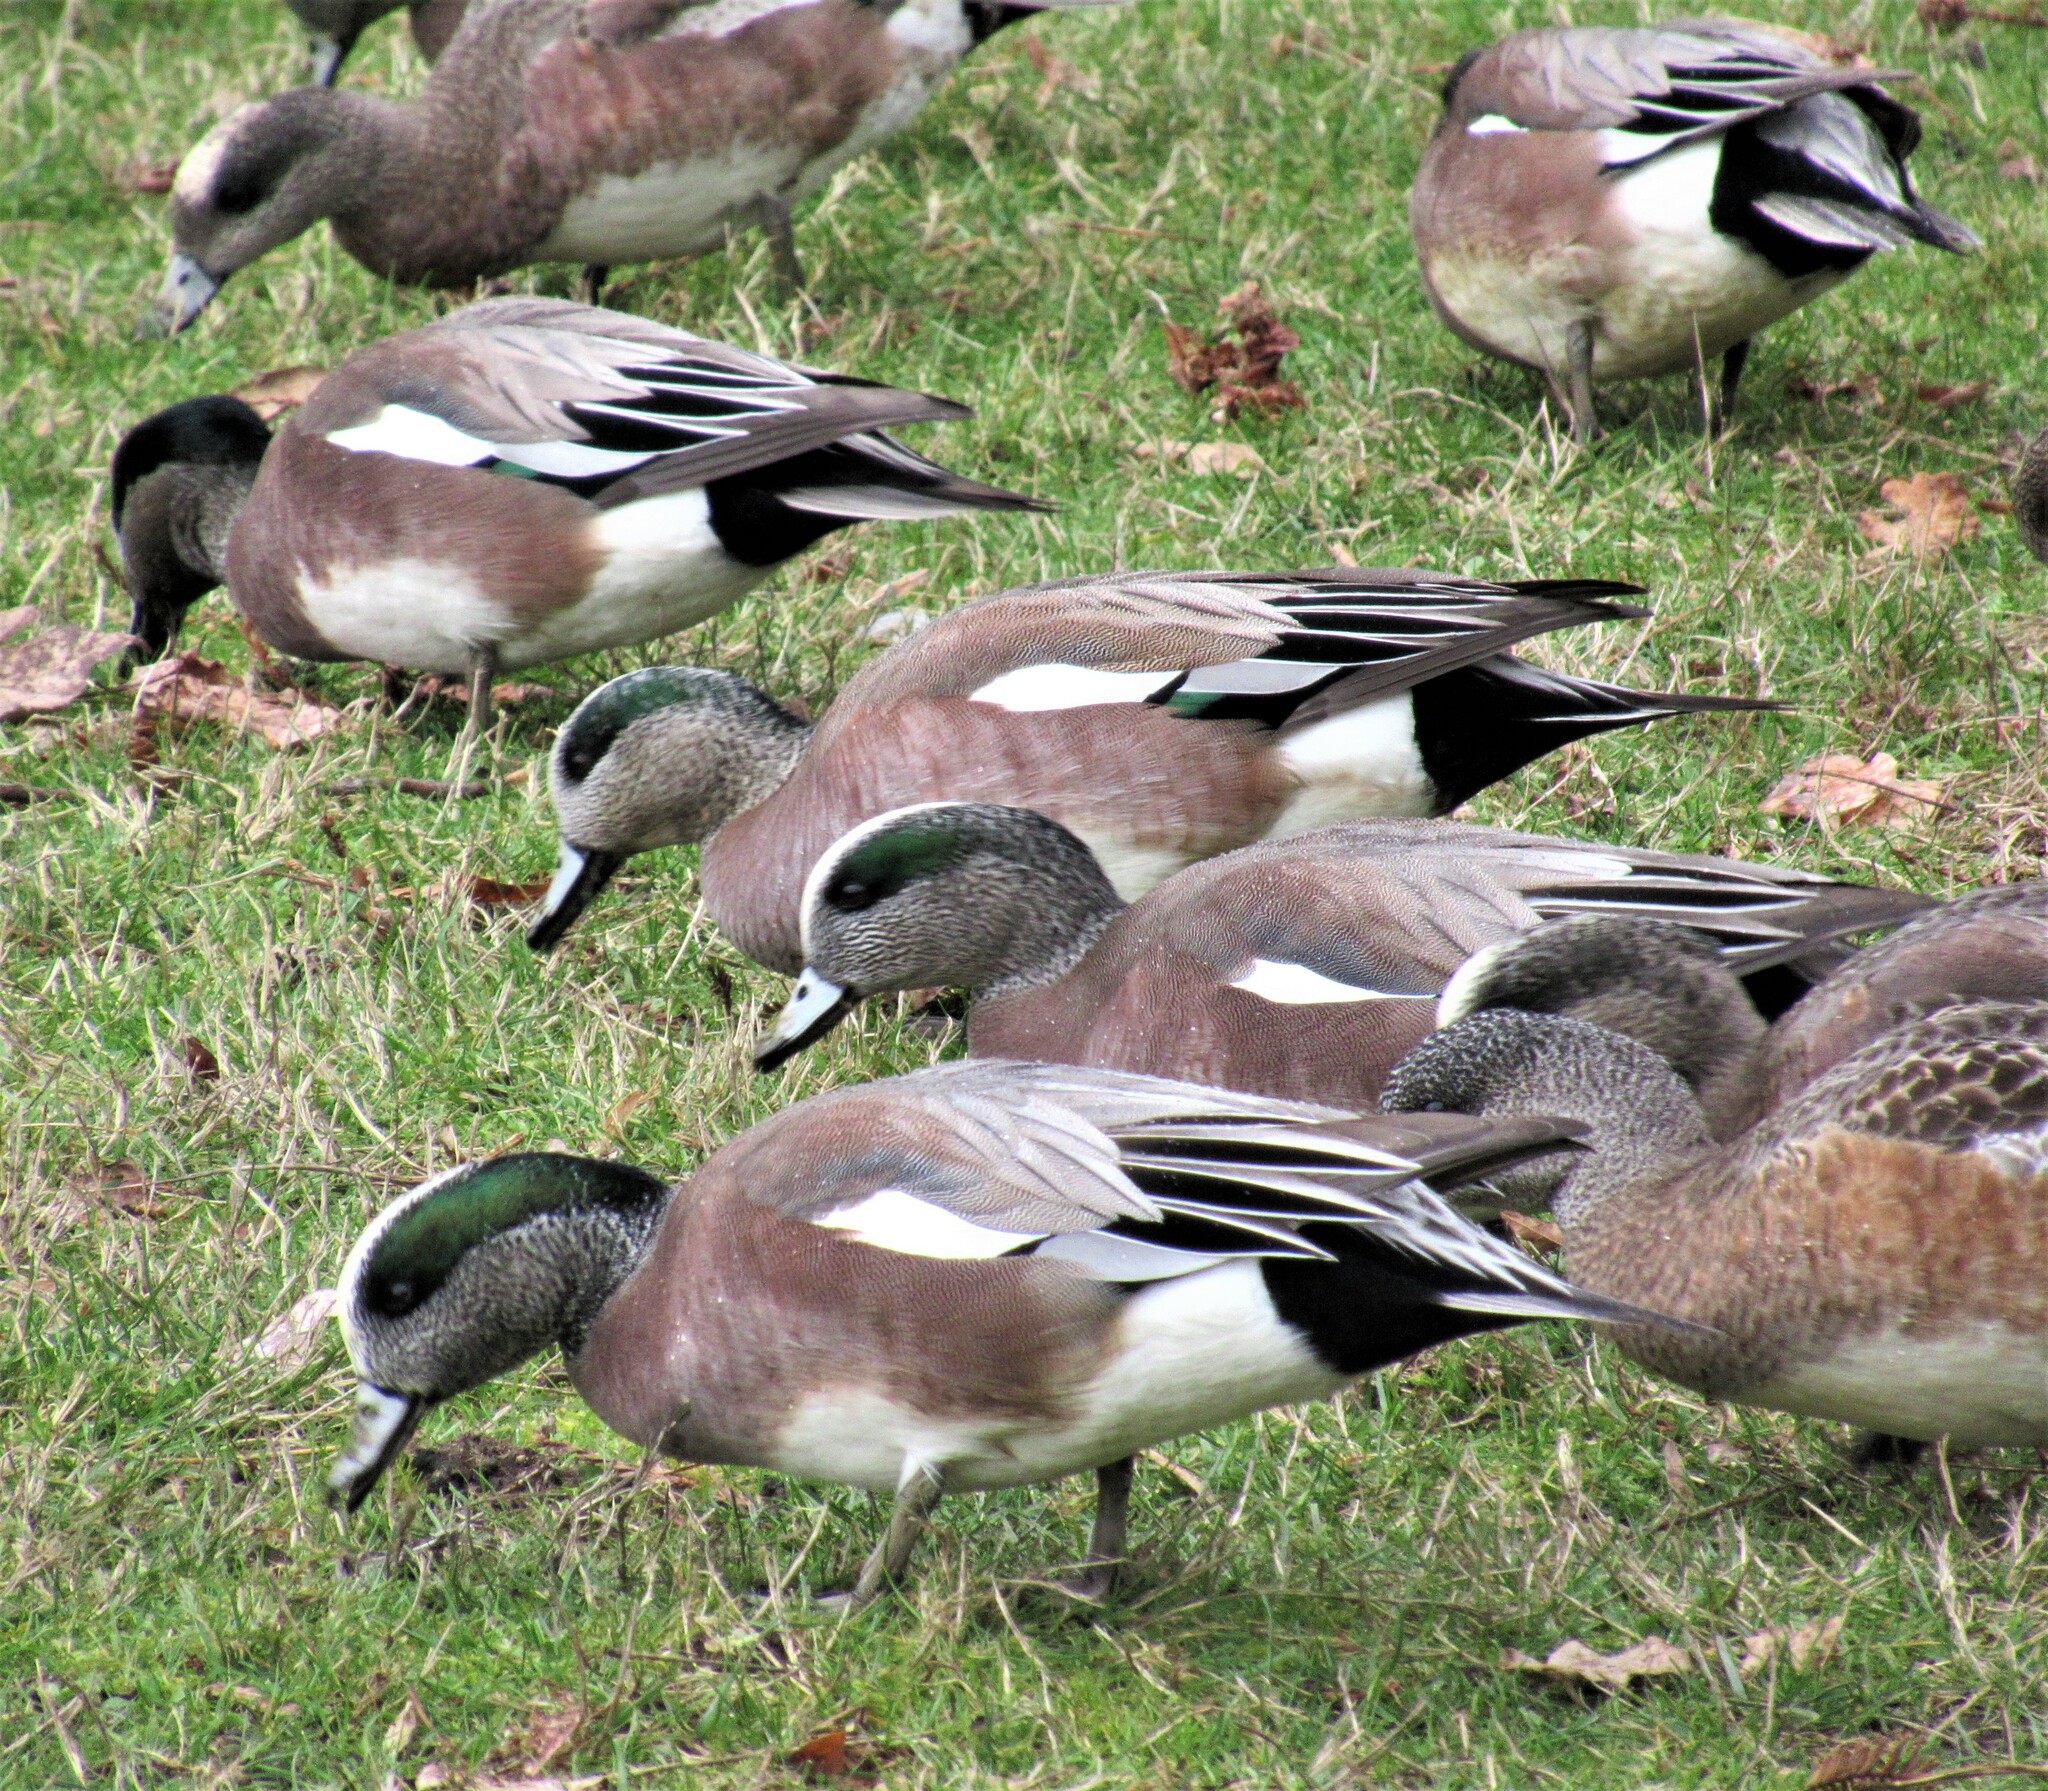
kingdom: Animalia
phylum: Chordata
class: Aves
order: Anseriformes
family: Anatidae
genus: Mareca
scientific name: Mareca americana
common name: American wigeon
